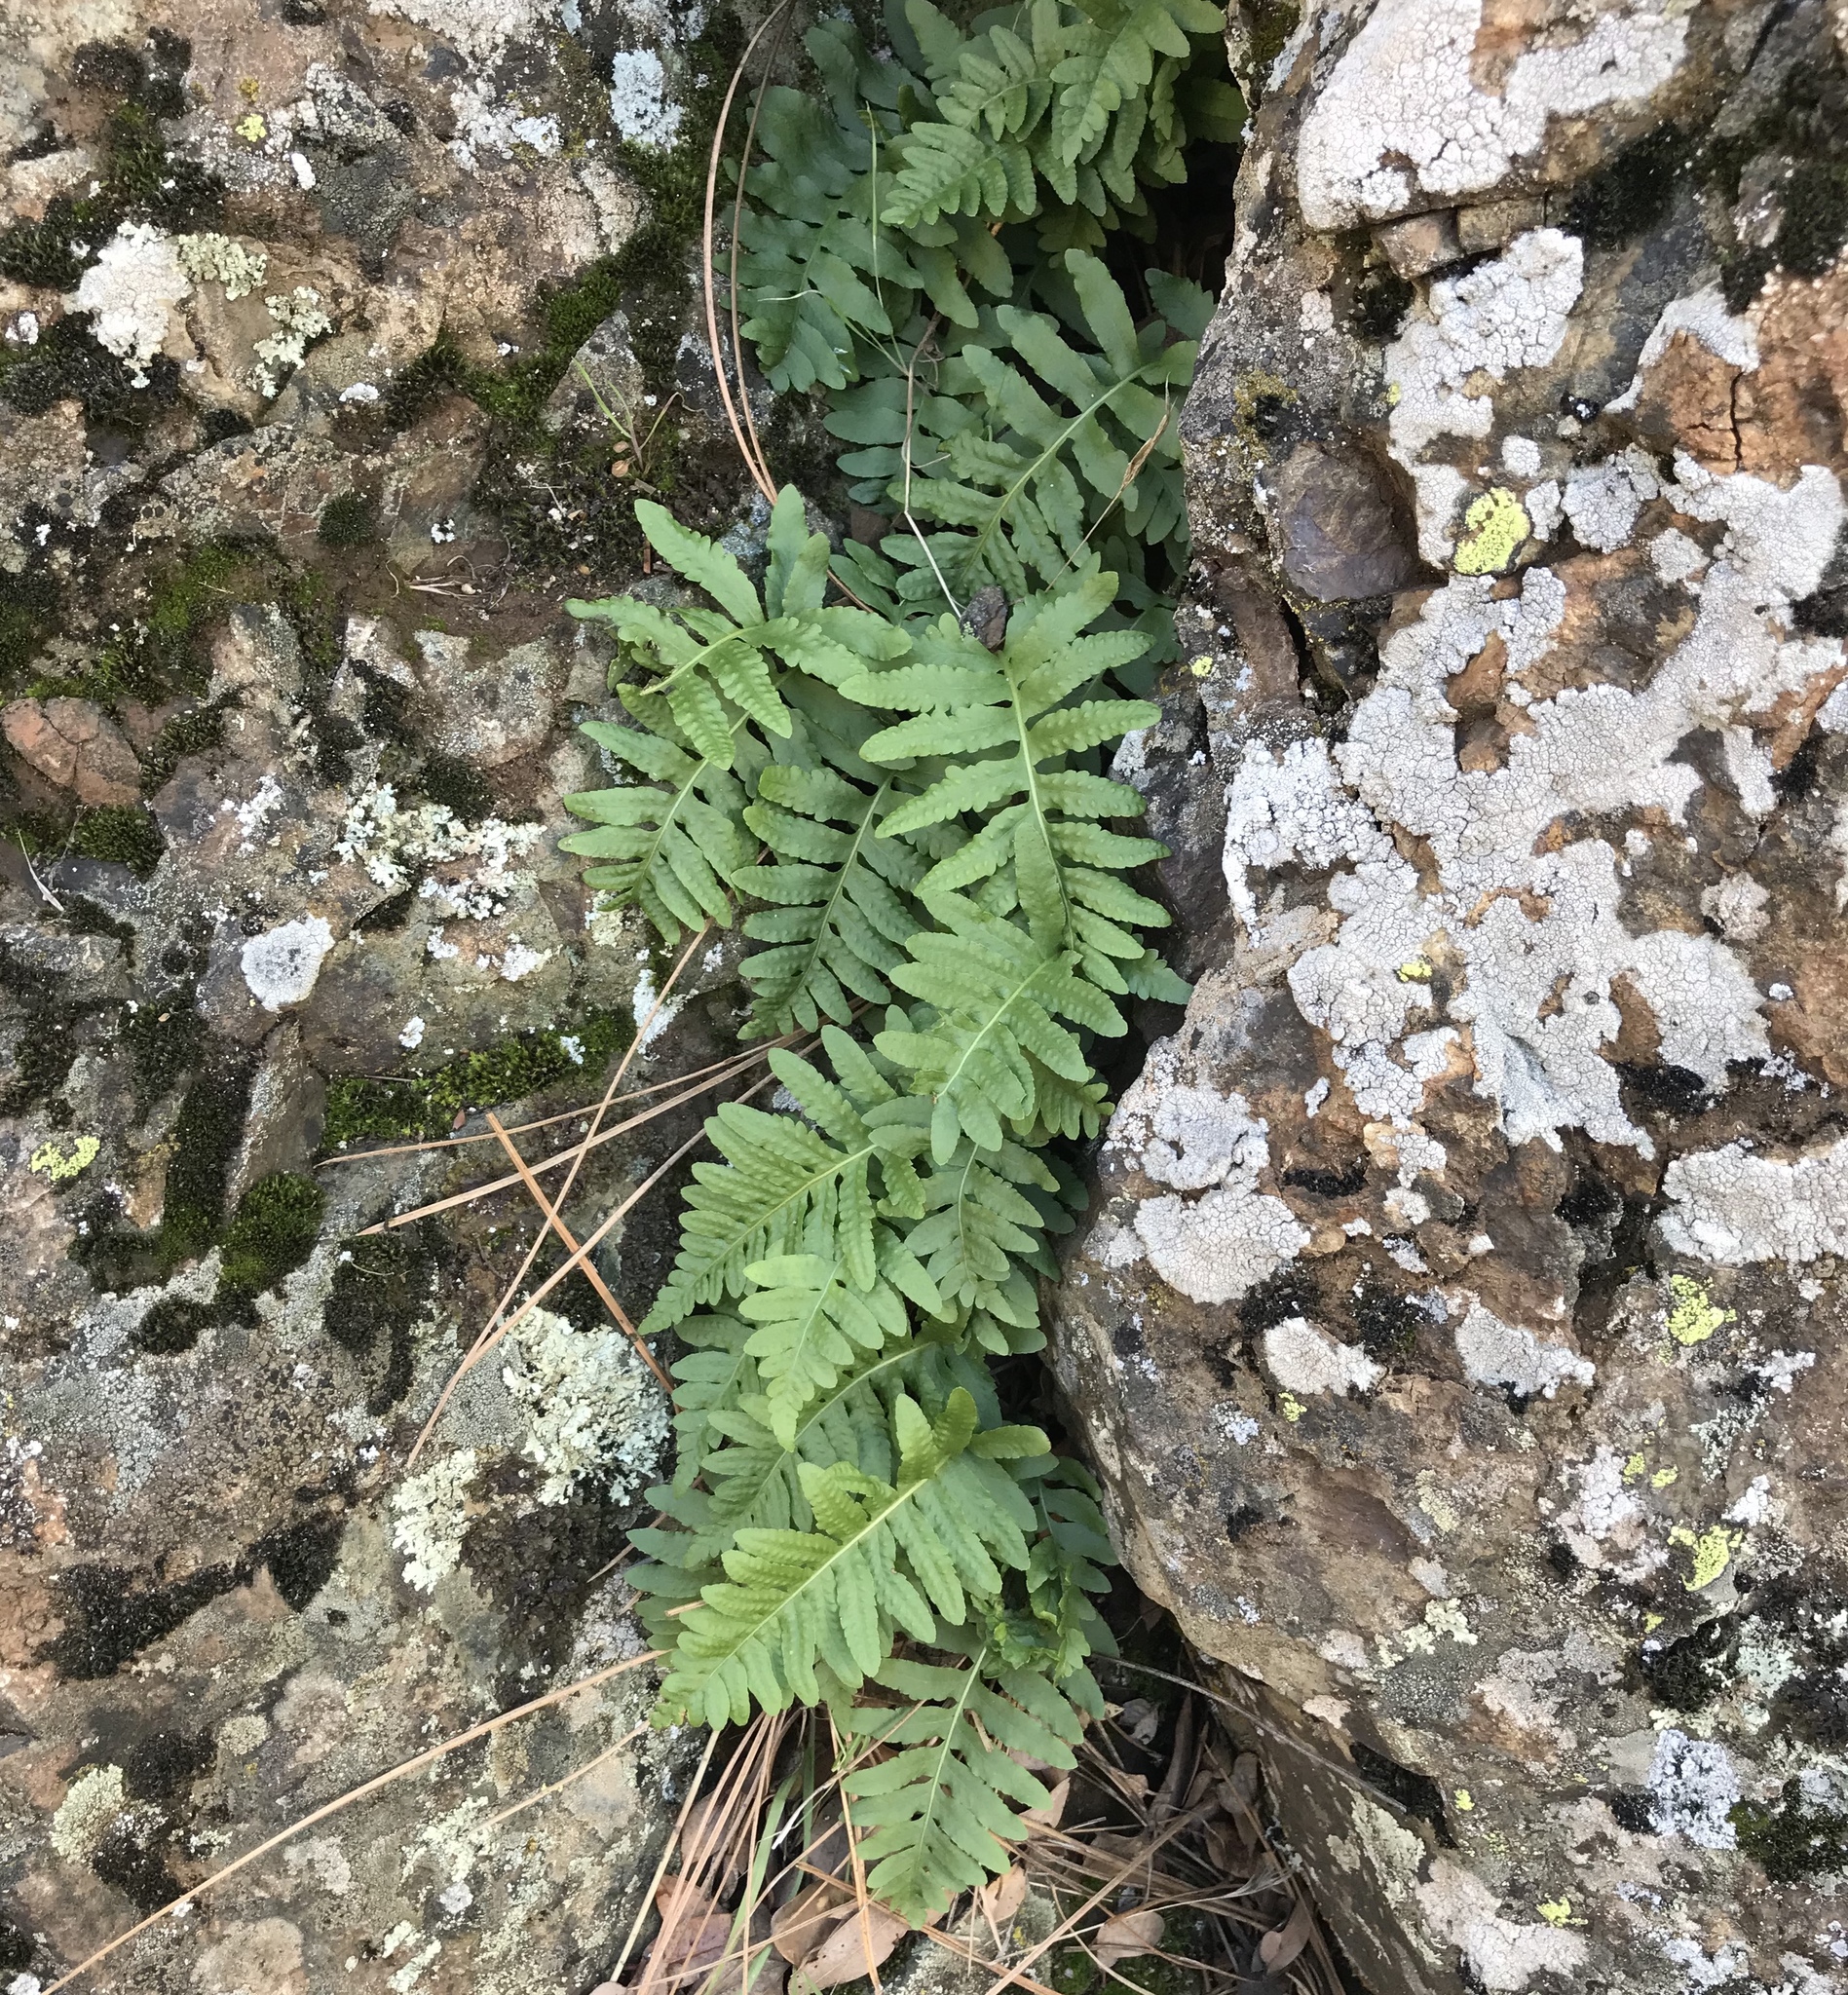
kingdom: Plantae
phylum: Tracheophyta
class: Polypodiopsida
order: Polypodiales
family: Polypodiaceae
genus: Polypodium
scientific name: Polypodium californicum
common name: California polypody
